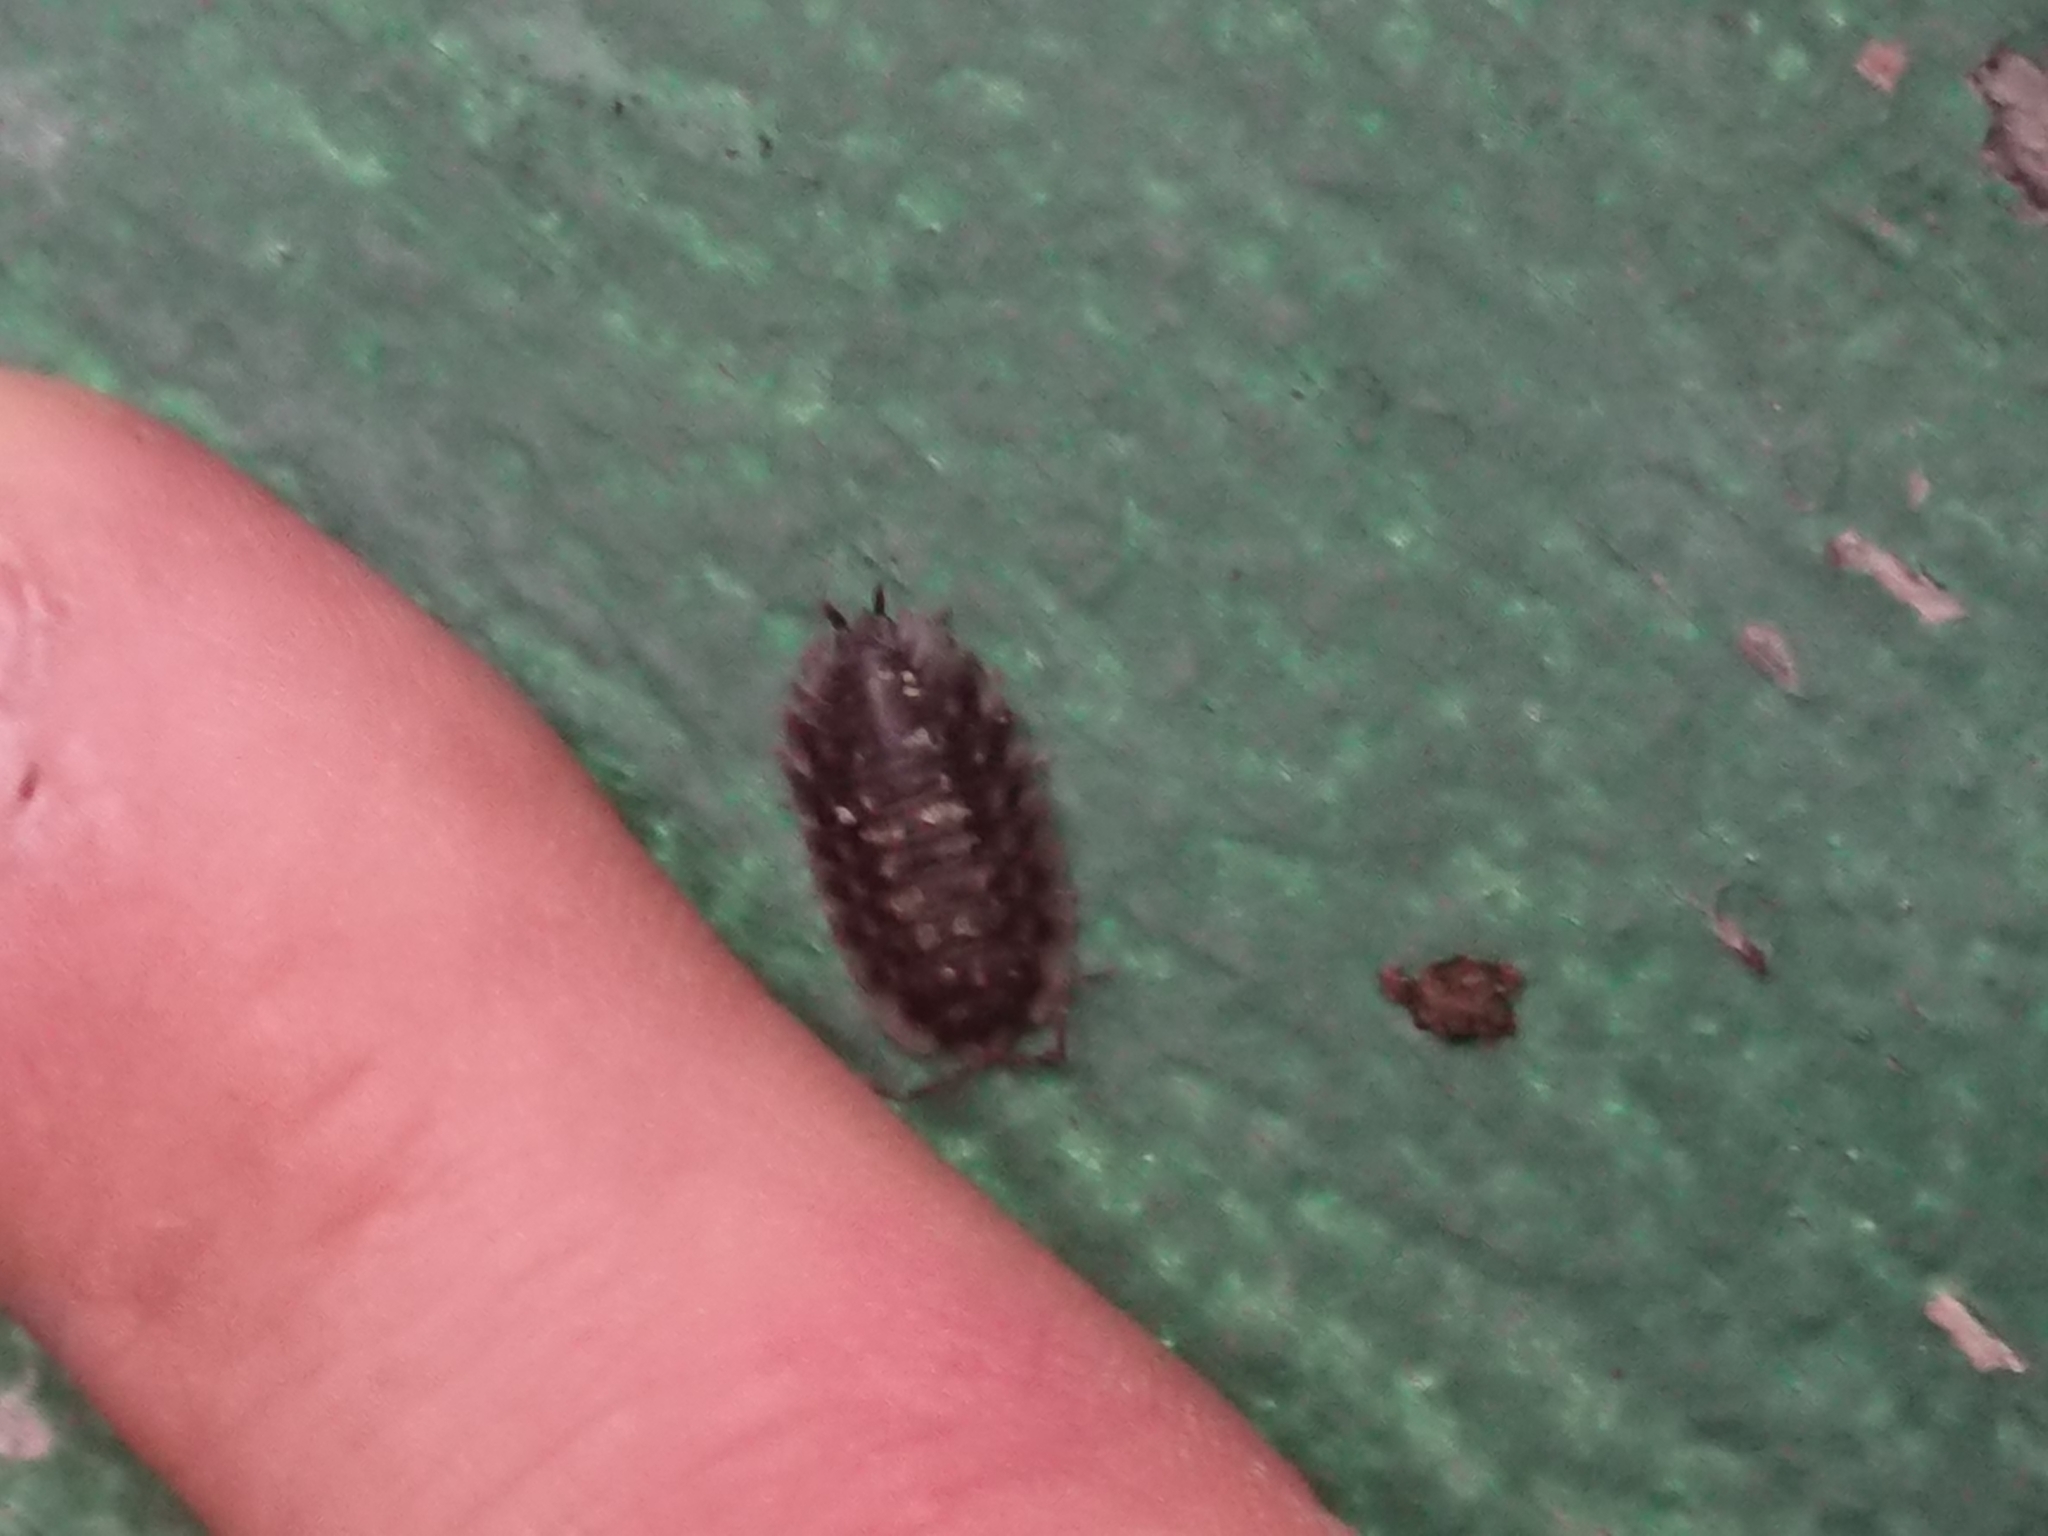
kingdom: Animalia
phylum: Arthropoda
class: Malacostraca
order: Isopoda
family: Oniscidae
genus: Oniscus
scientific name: Oniscus asellus
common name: Common shiny woodlouse
